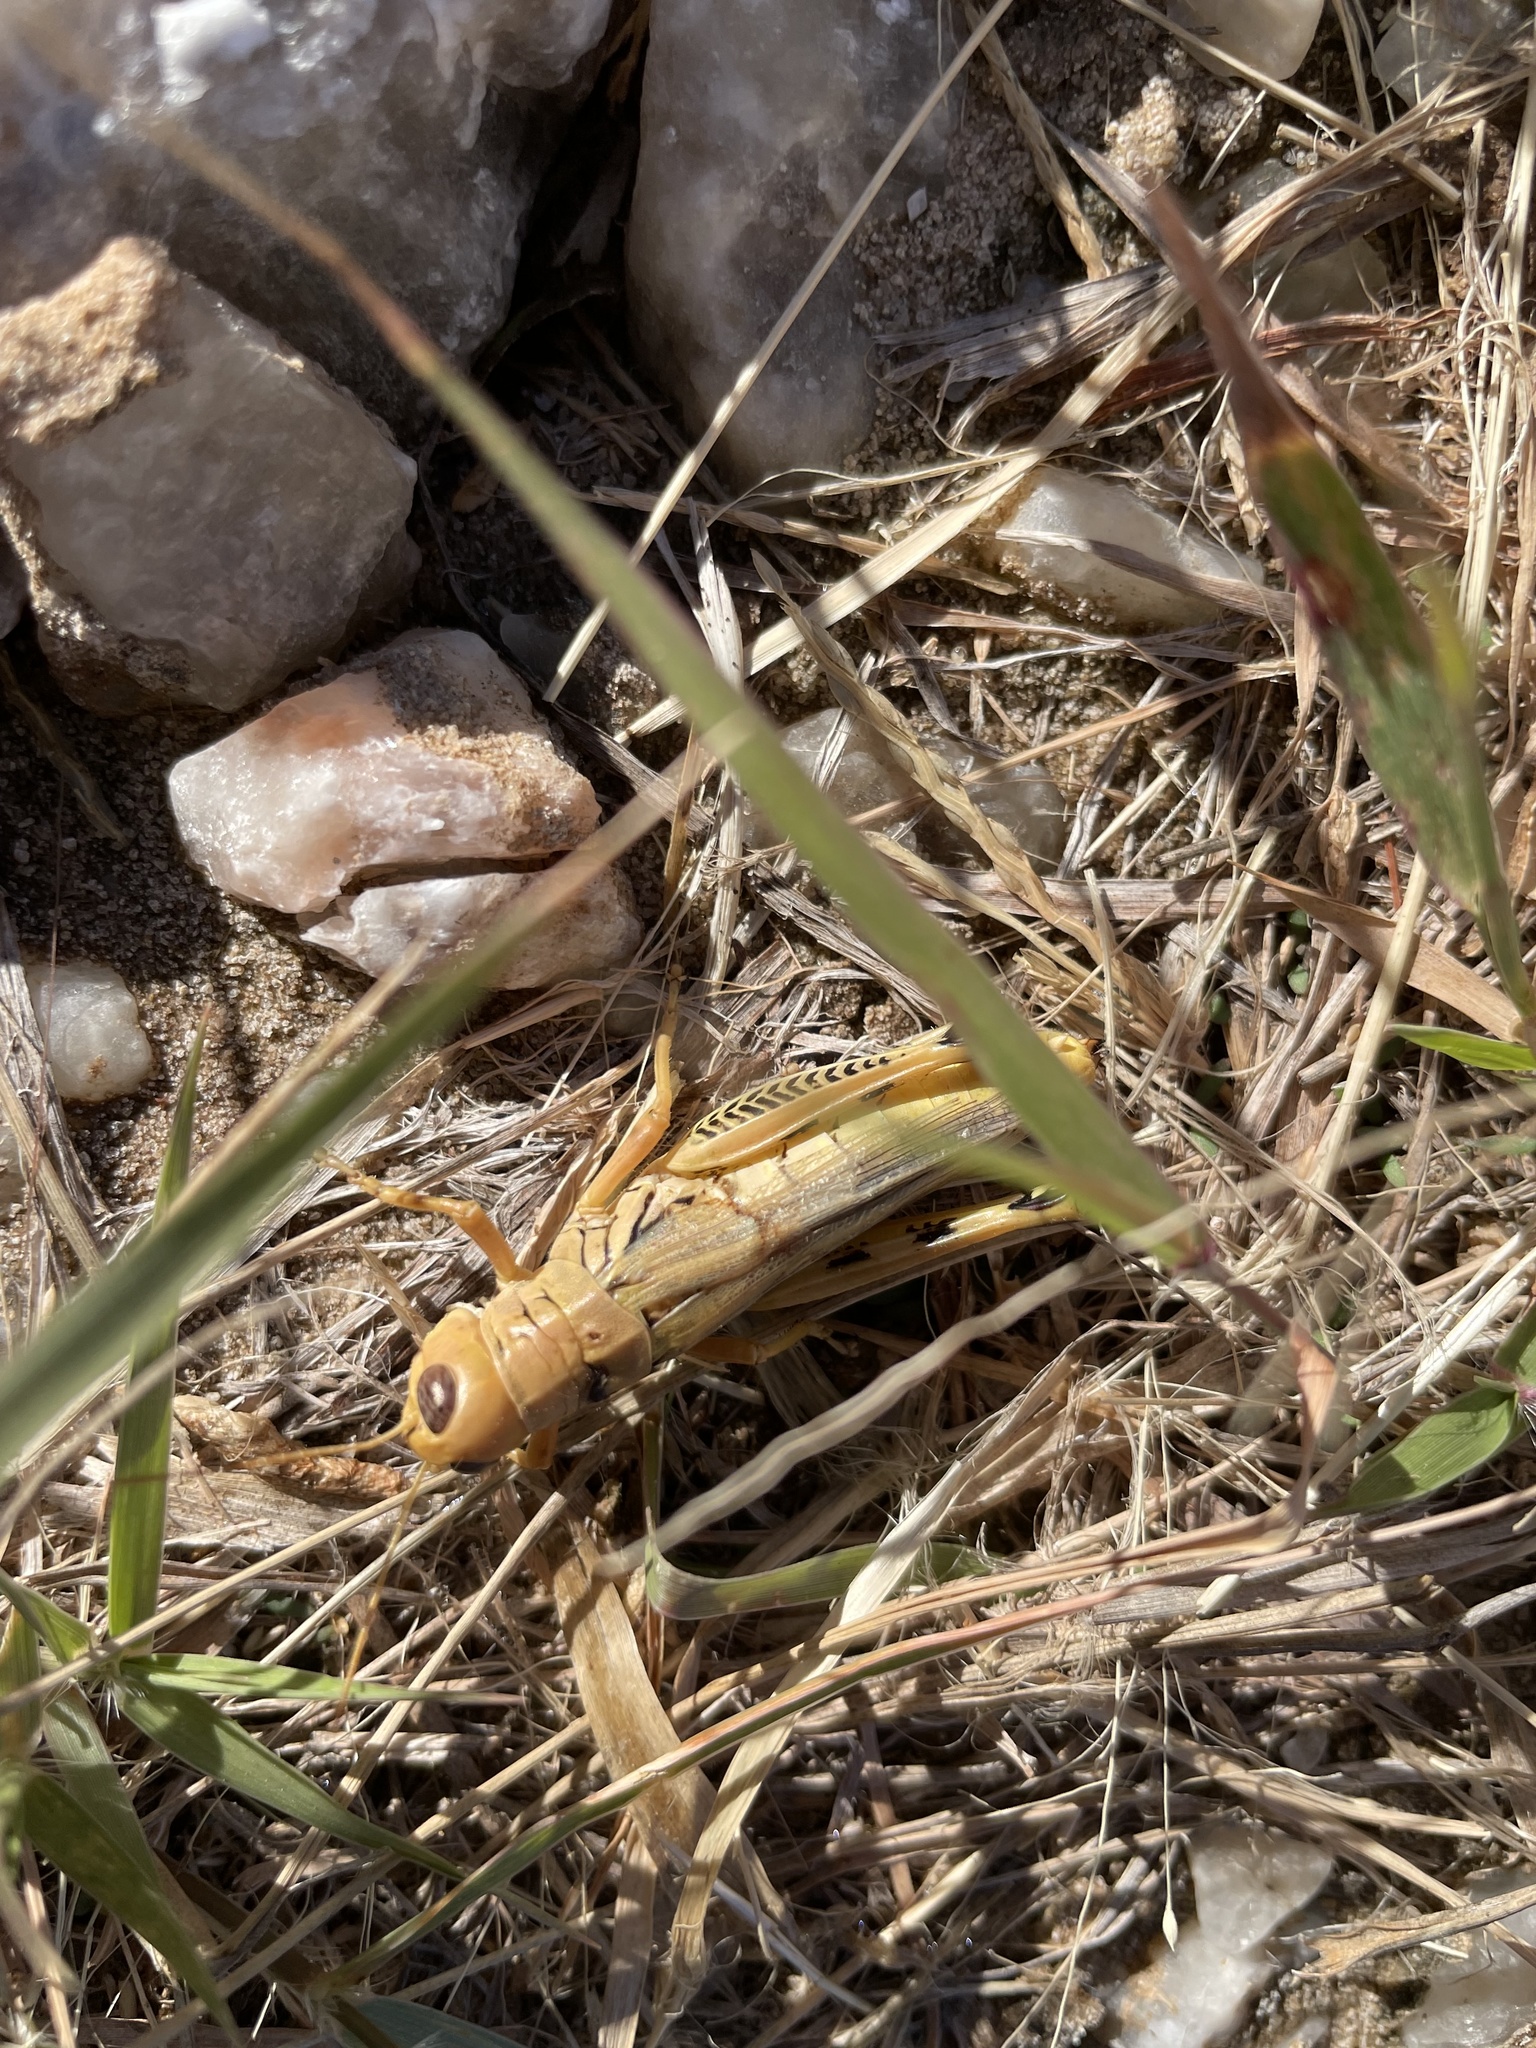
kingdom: Animalia
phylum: Arthropoda
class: Insecta
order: Orthoptera
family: Acrididae
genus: Melanoplus
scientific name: Melanoplus differentialis
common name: Differential grasshopper
